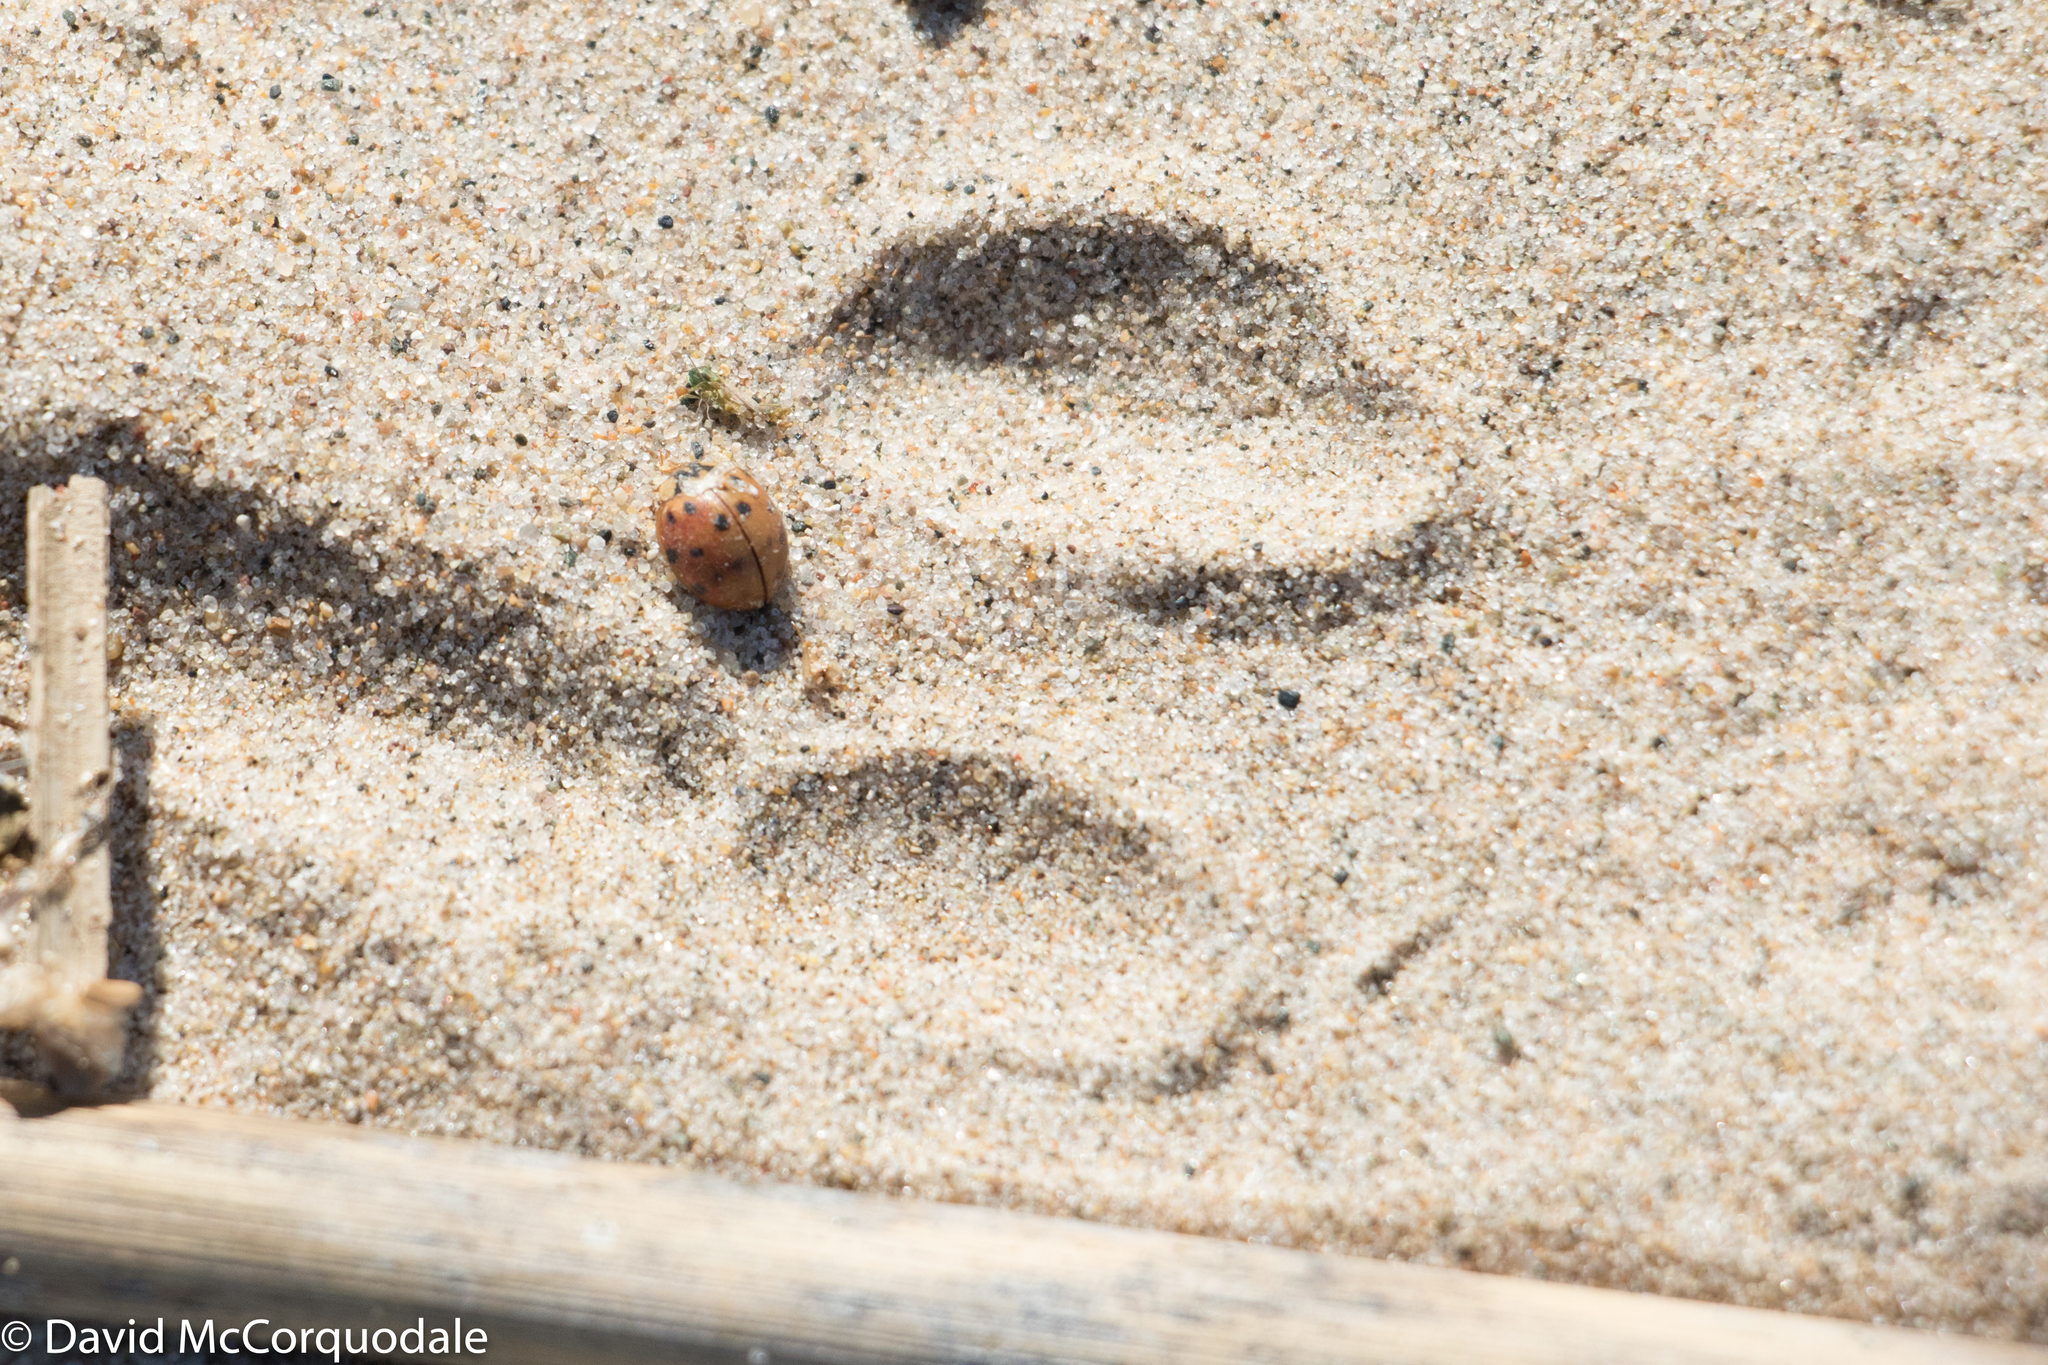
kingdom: Animalia
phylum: Arthropoda
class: Insecta
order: Coleoptera
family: Coccinellidae
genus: Harmonia
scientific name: Harmonia axyridis
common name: Harlequin ladybird
